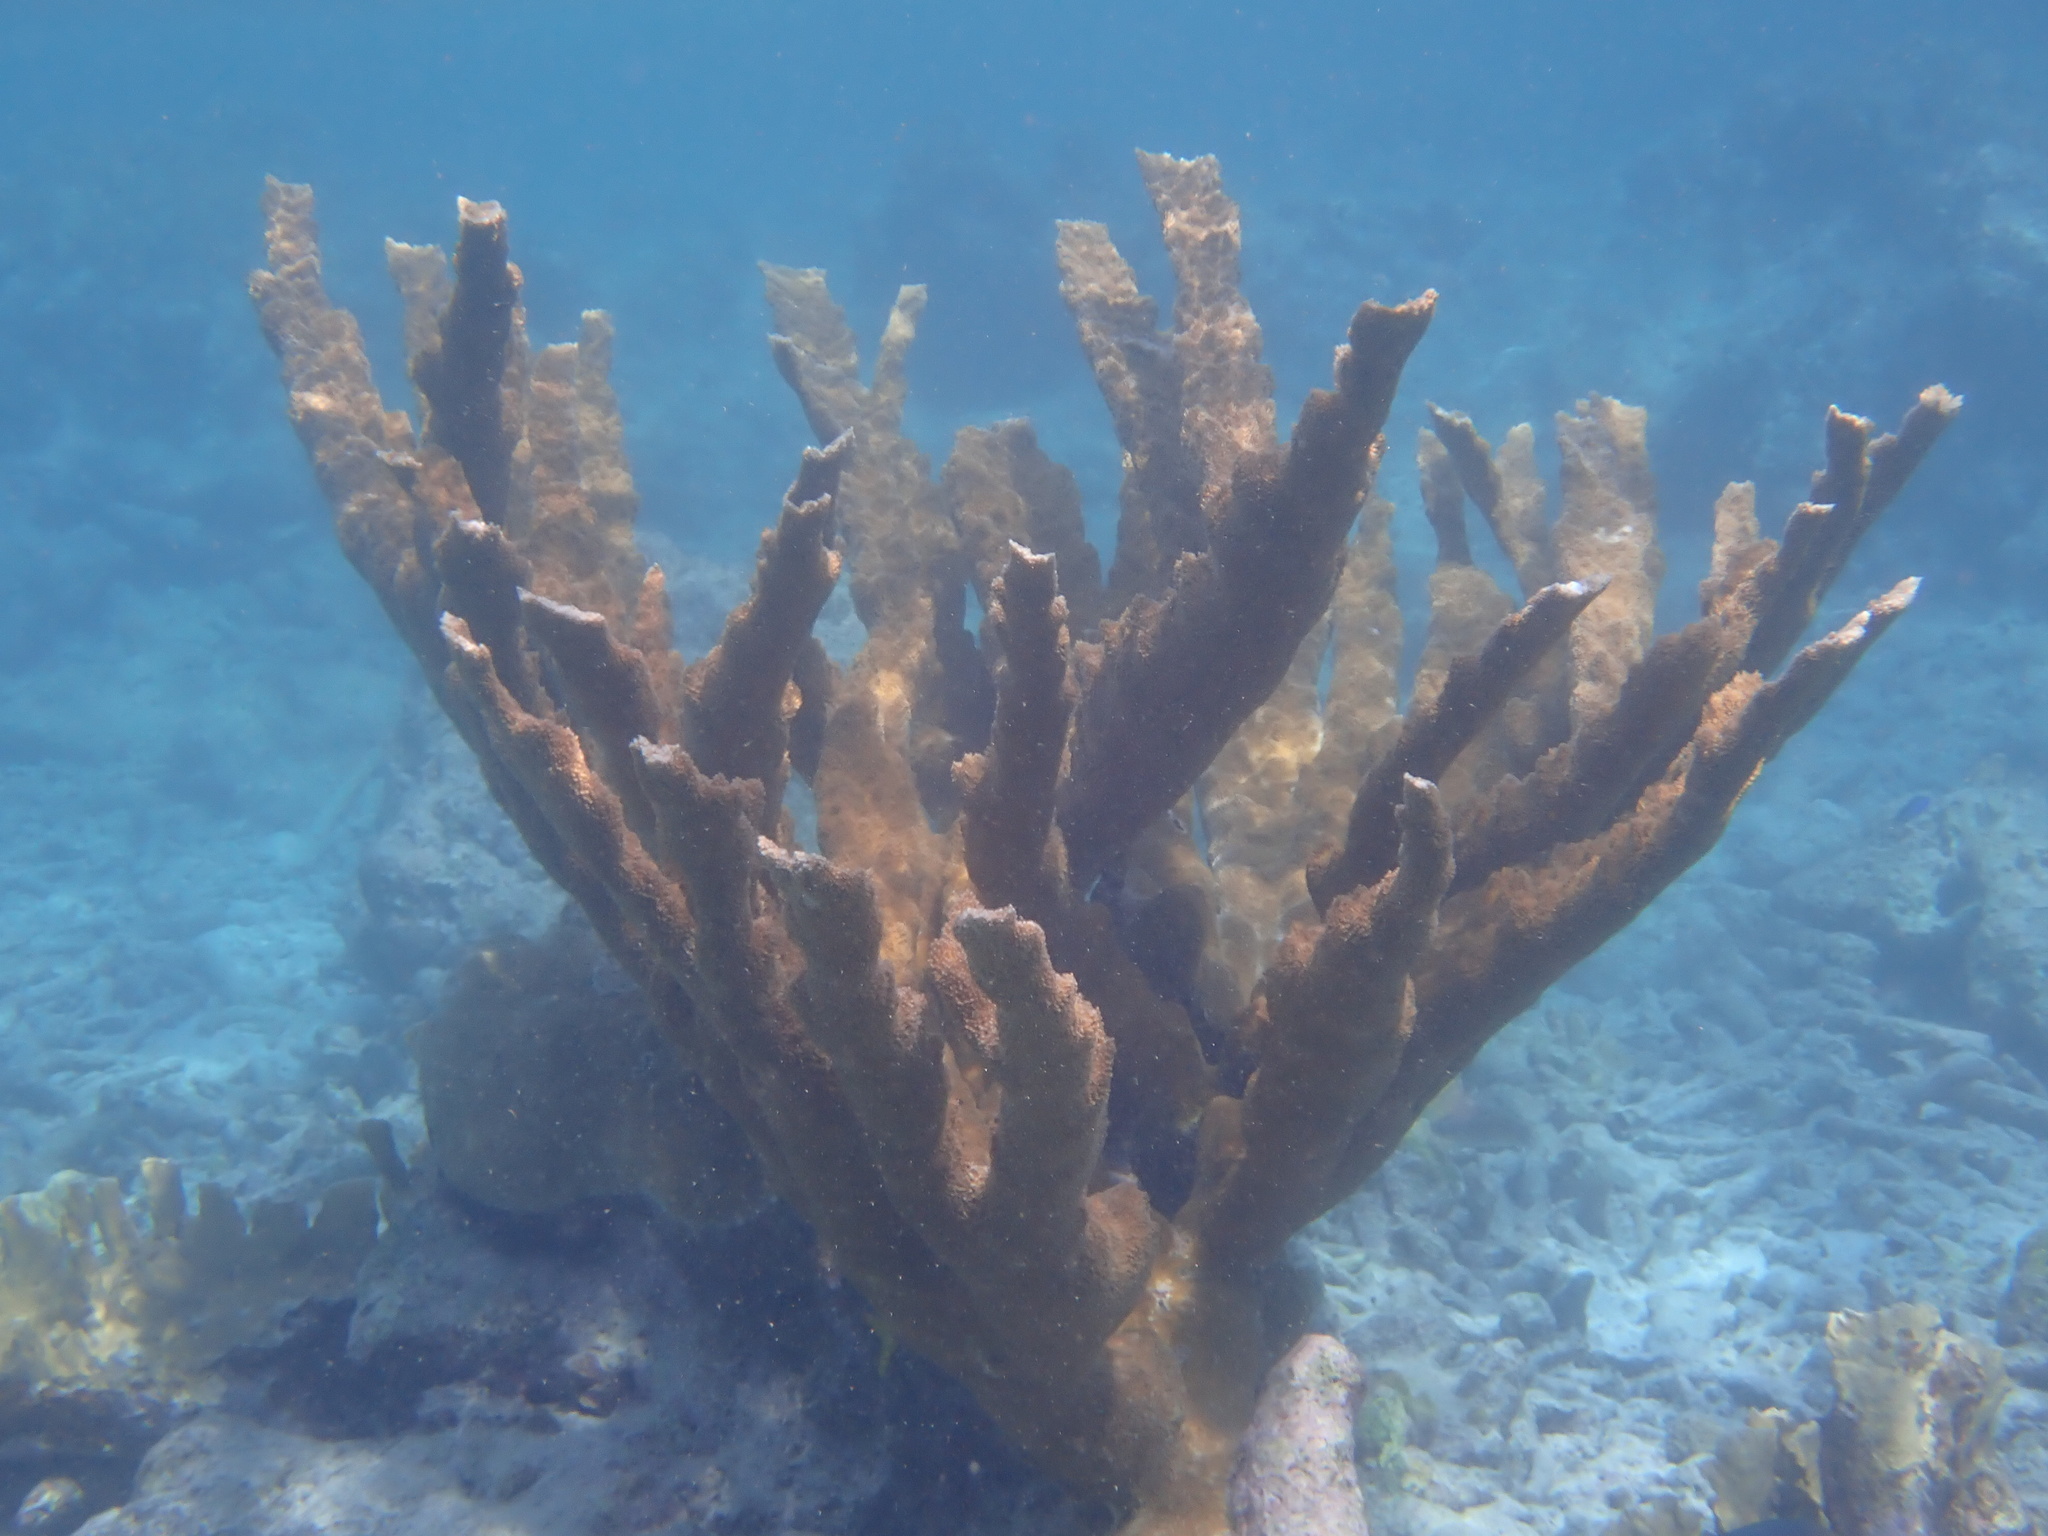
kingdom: Animalia
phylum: Cnidaria
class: Anthozoa
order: Scleractinia
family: Acroporidae
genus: Acropora
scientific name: Acropora palmata
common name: Elkhorn coral
